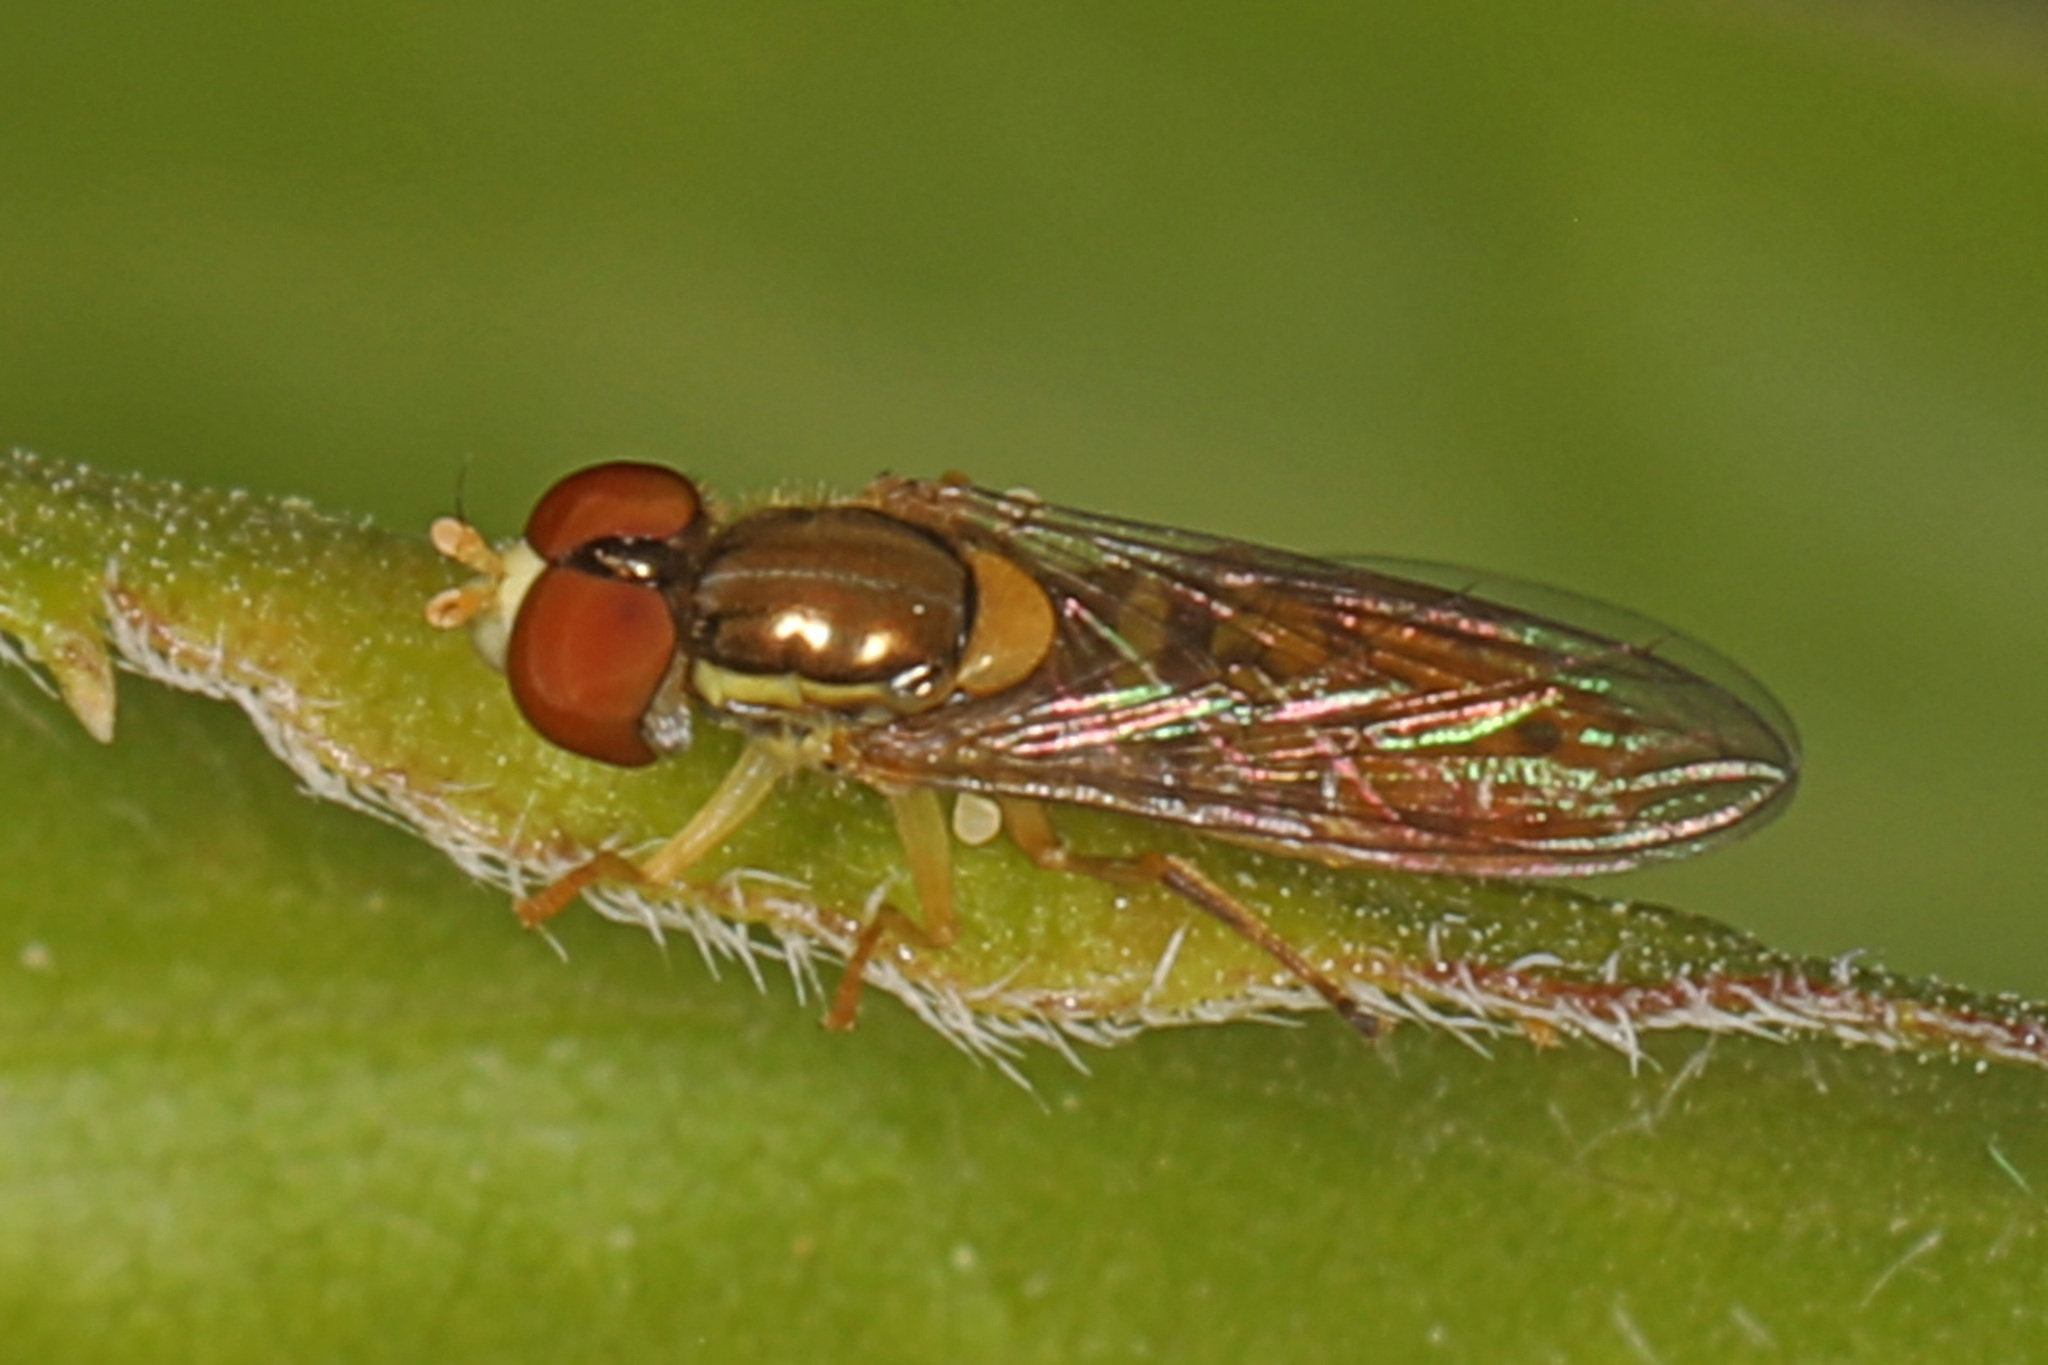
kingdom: Animalia
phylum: Arthropoda
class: Insecta
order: Diptera
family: Syrphidae
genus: Toxomerus
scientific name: Toxomerus marginatus
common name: Syrphid fly
